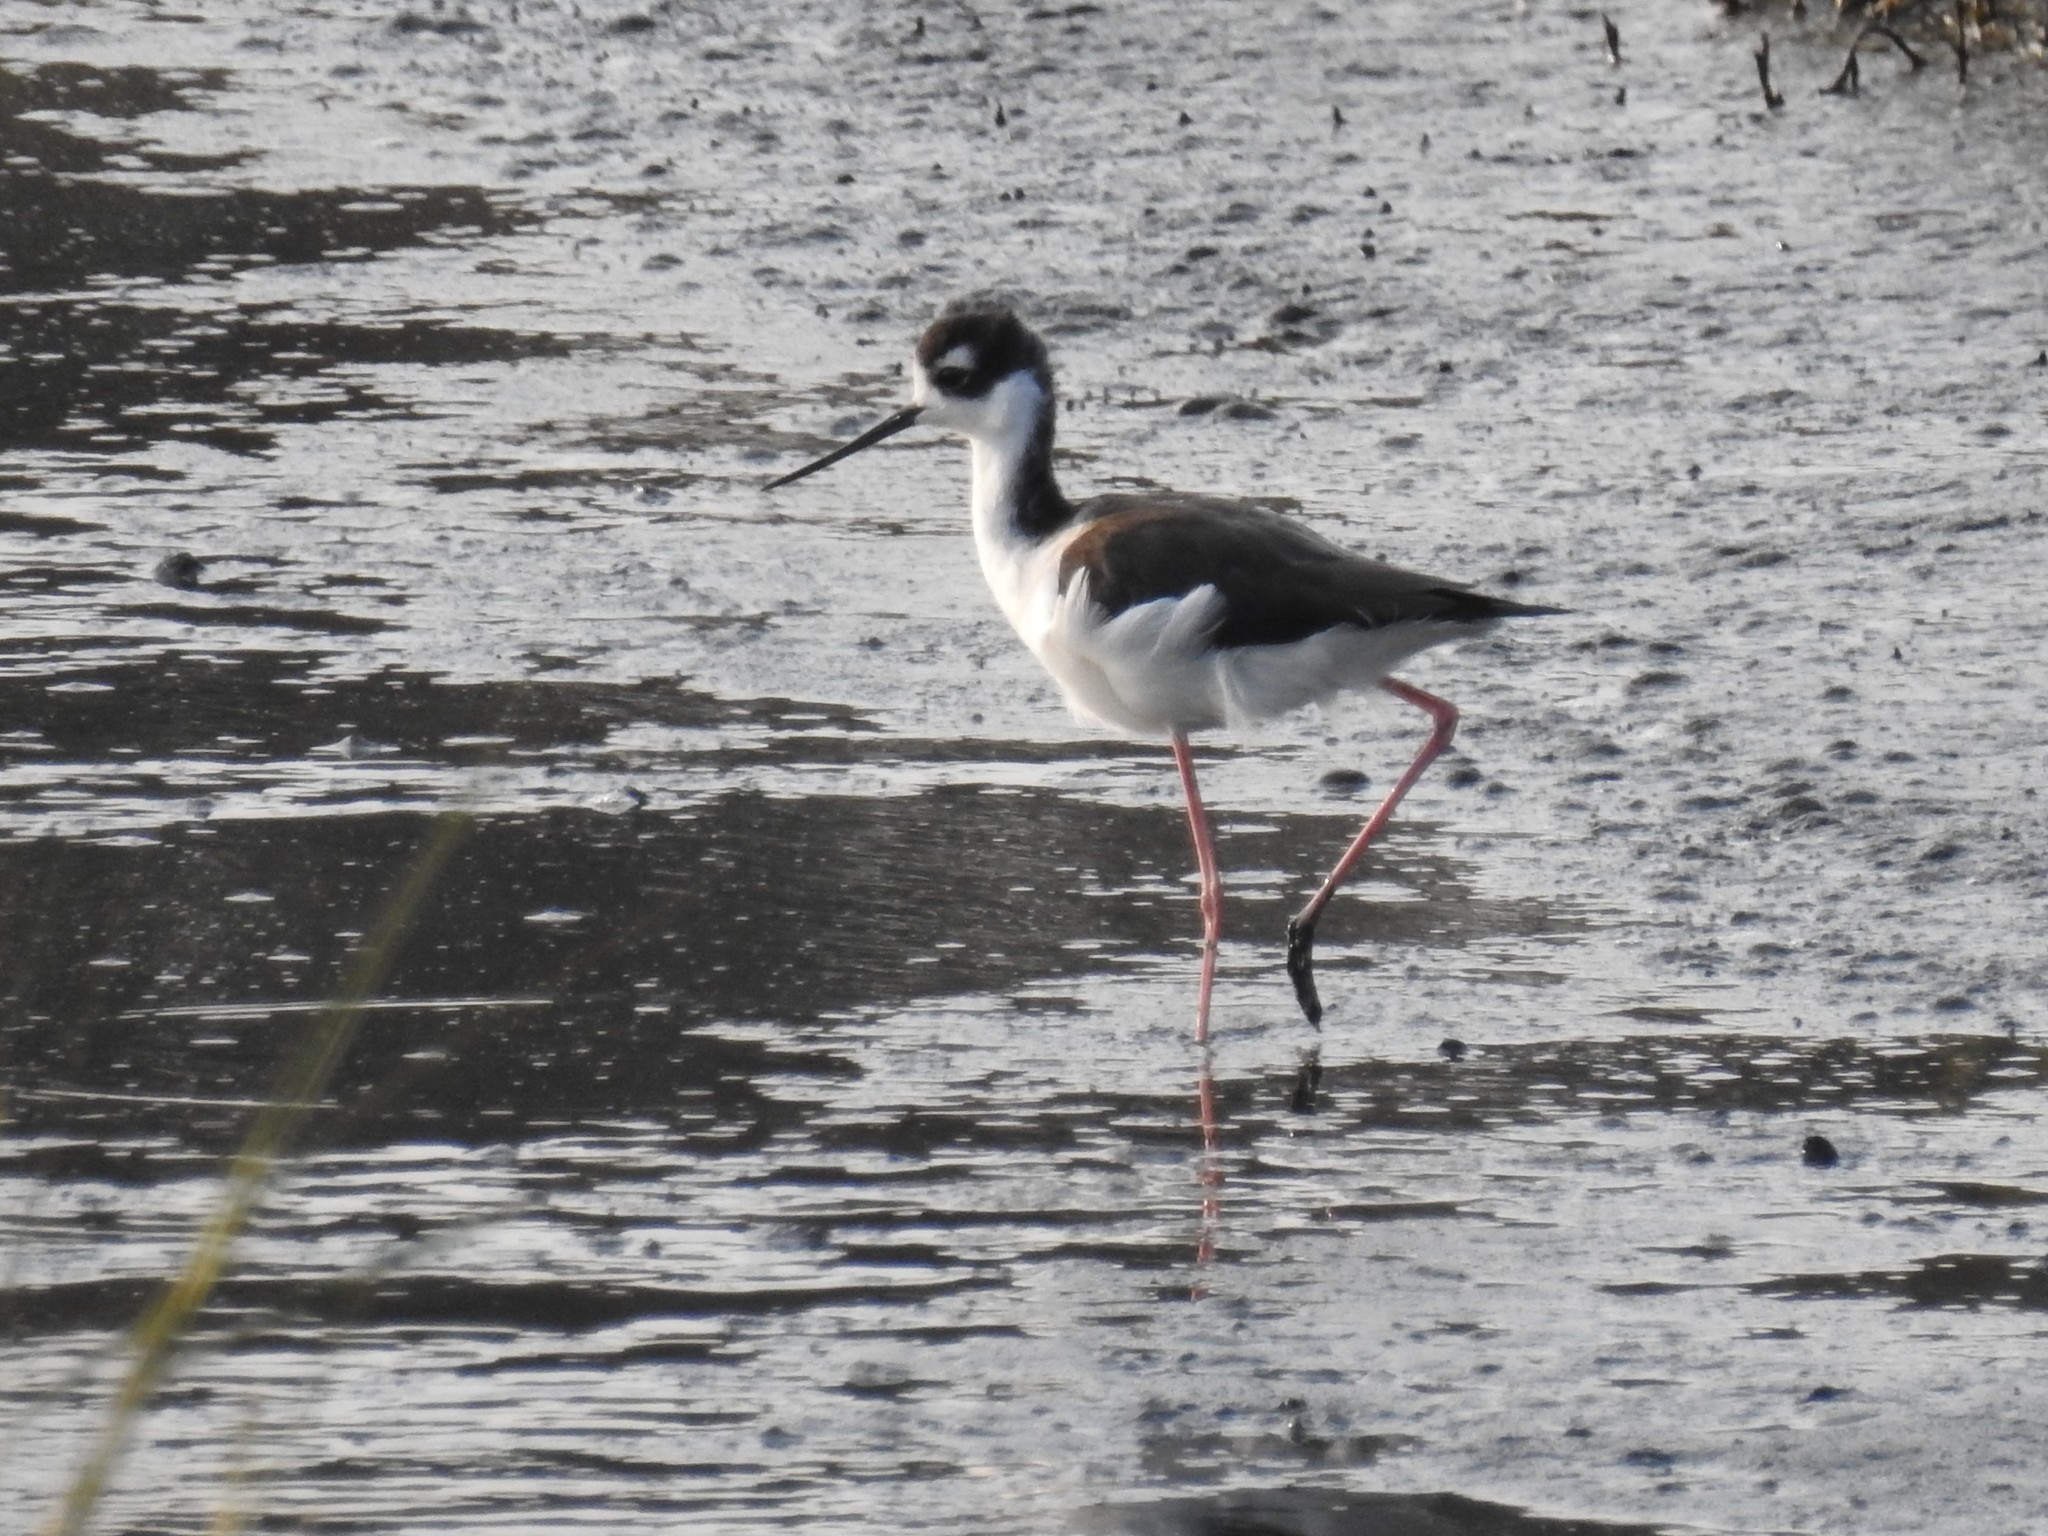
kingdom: Animalia
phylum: Chordata
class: Aves
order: Charadriiformes
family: Recurvirostridae
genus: Himantopus
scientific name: Himantopus mexicanus
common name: Black-necked stilt
